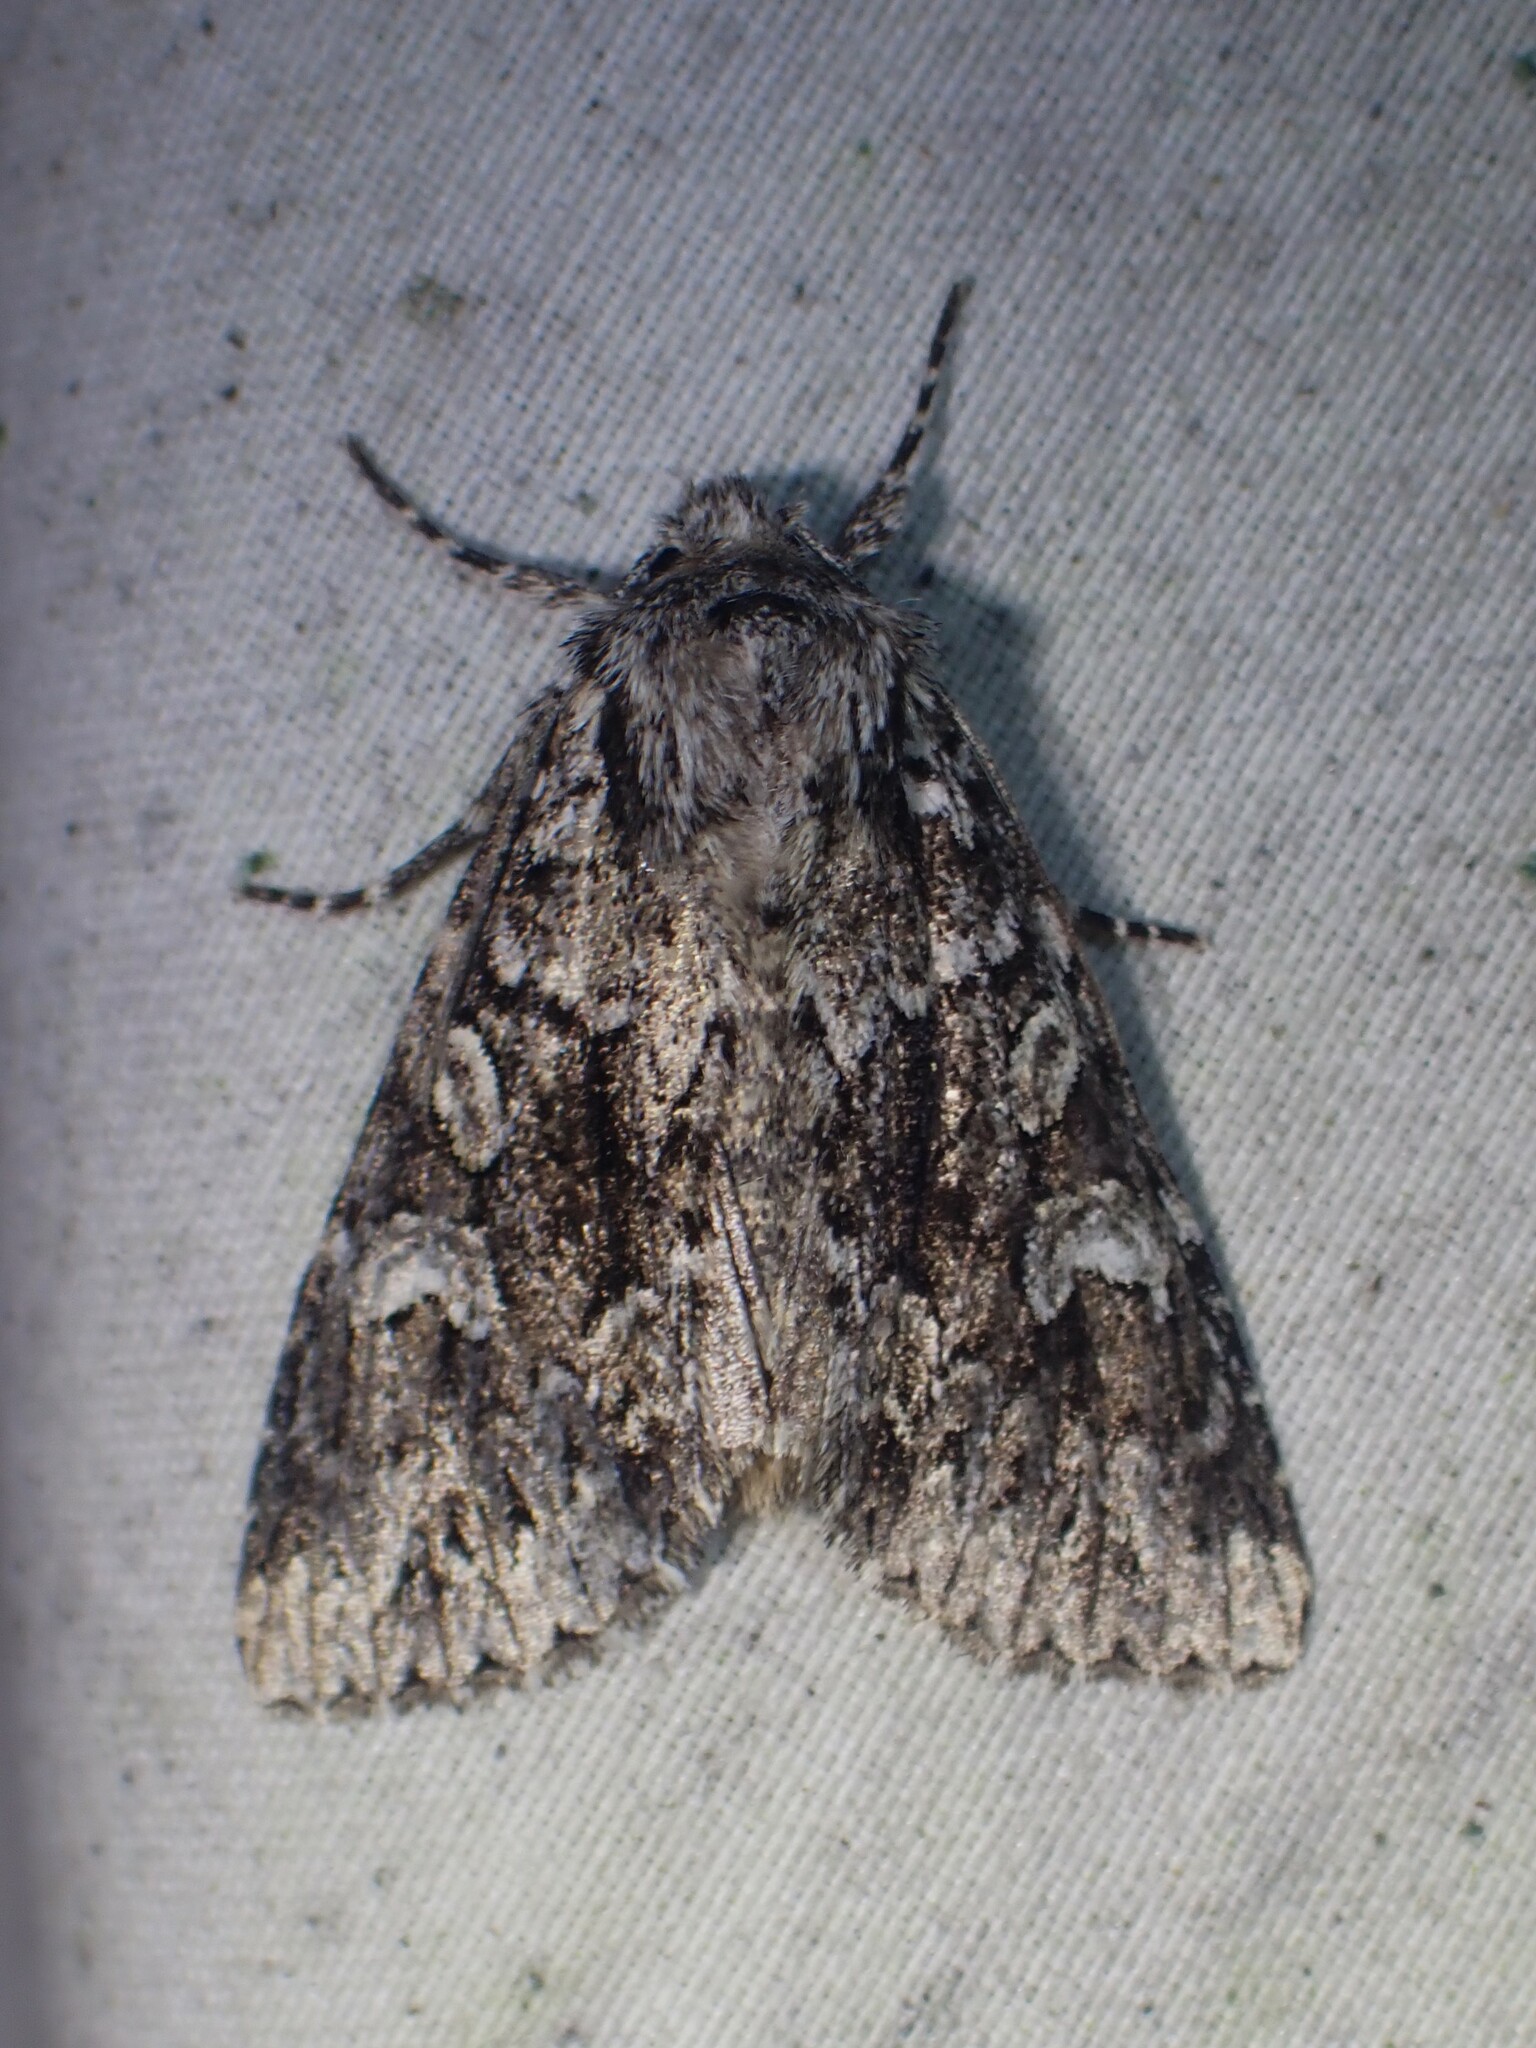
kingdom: Animalia
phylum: Arthropoda
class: Insecta
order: Lepidoptera
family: Noctuidae
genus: Platypolia
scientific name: Platypolia anceps
